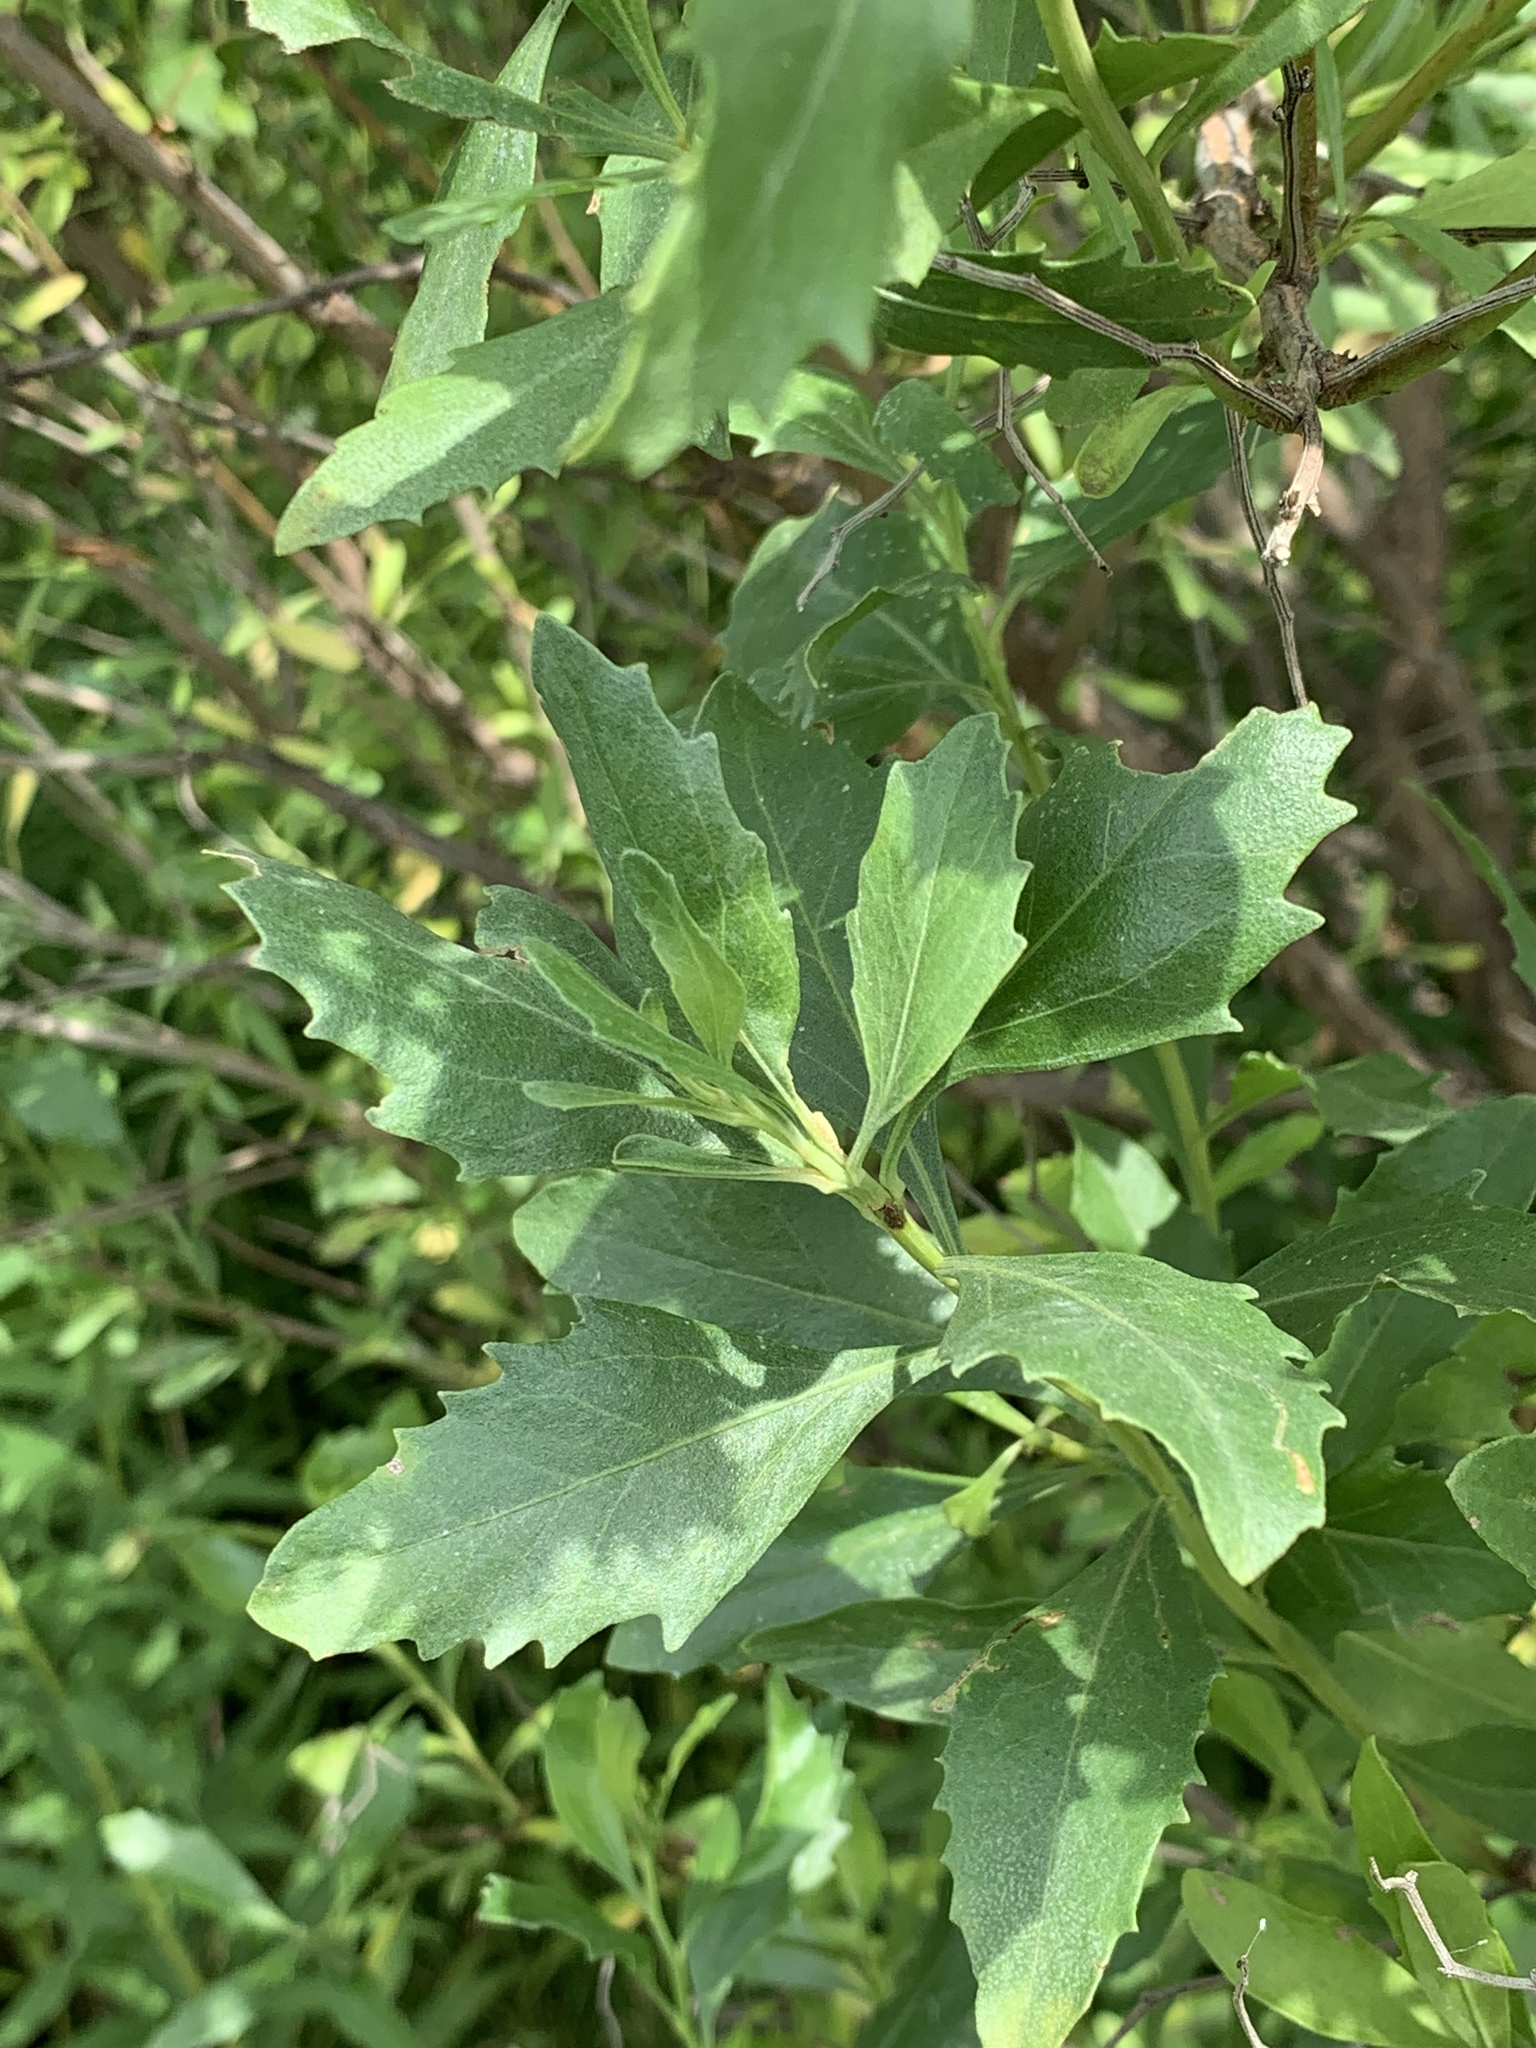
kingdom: Plantae
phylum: Tracheophyta
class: Magnoliopsida
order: Asterales
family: Asteraceae
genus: Baccharis
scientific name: Baccharis halimifolia
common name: Eastern baccharis
